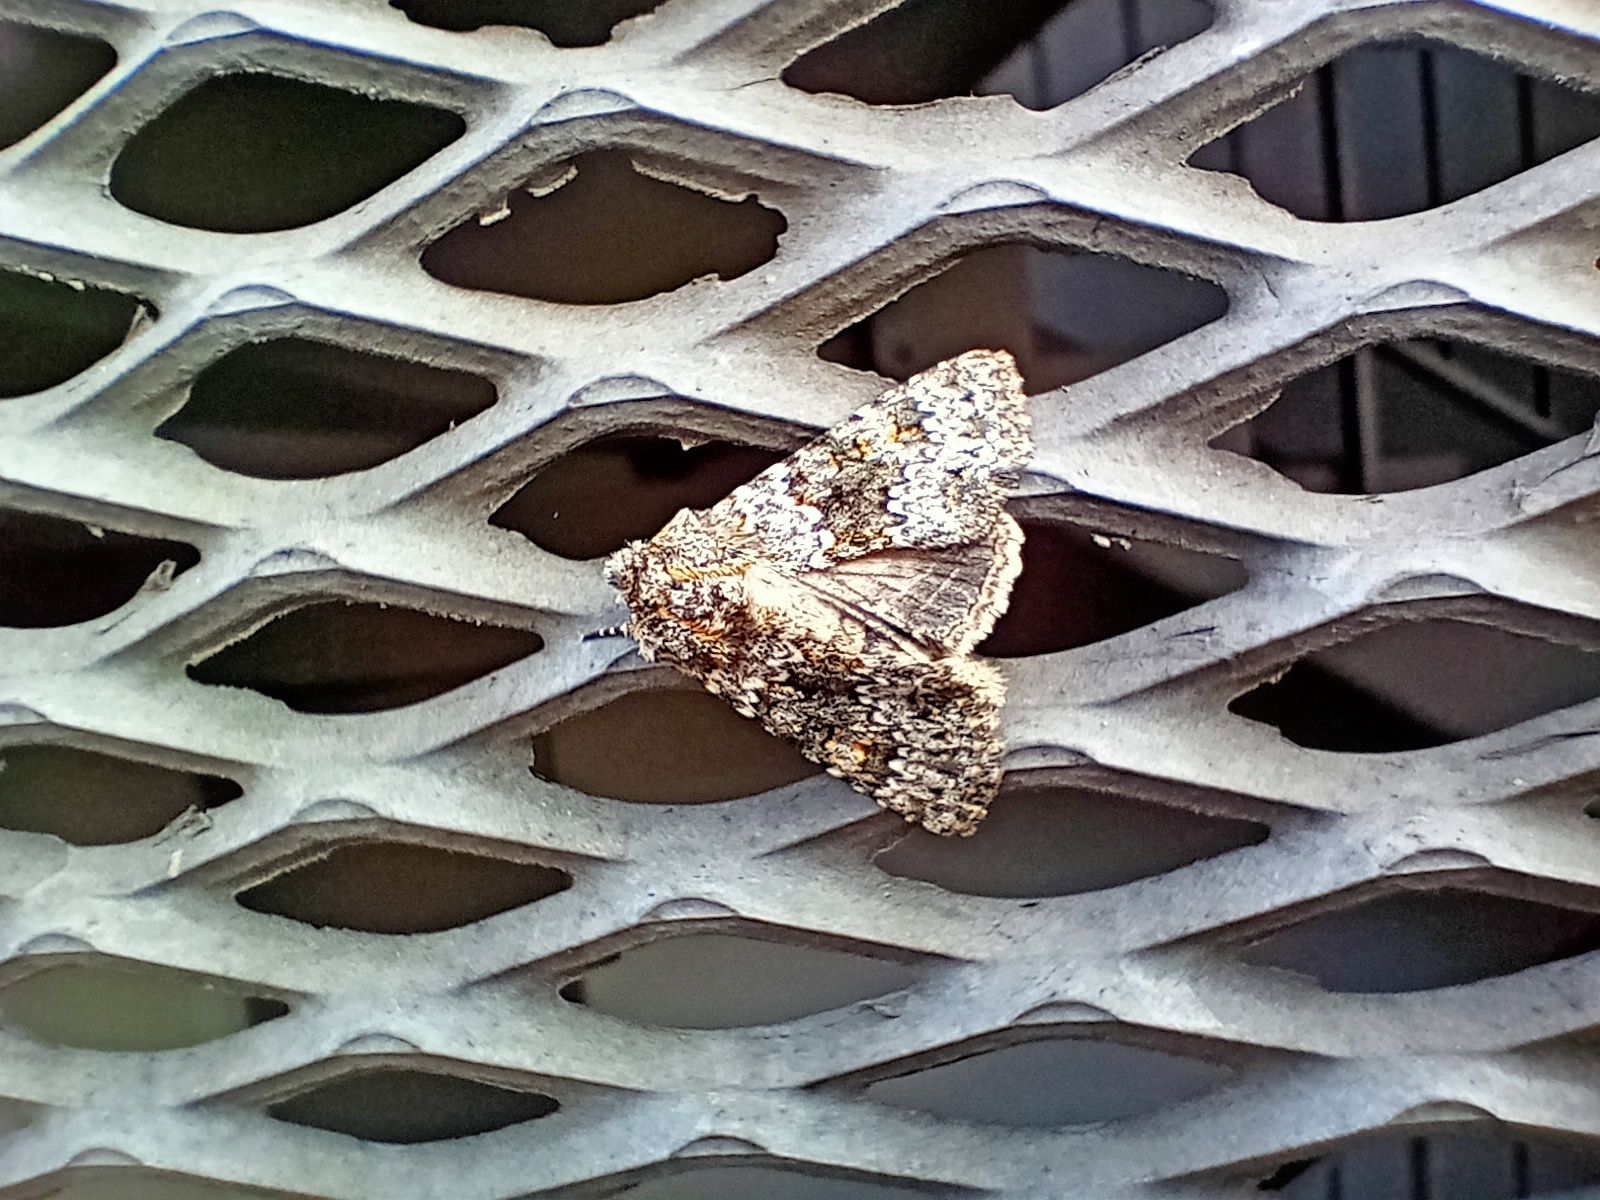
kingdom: Animalia
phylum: Arthropoda
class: Insecta
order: Lepidoptera
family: Noctuidae
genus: Hecatera
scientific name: Hecatera dysodea
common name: Small ranunculus
